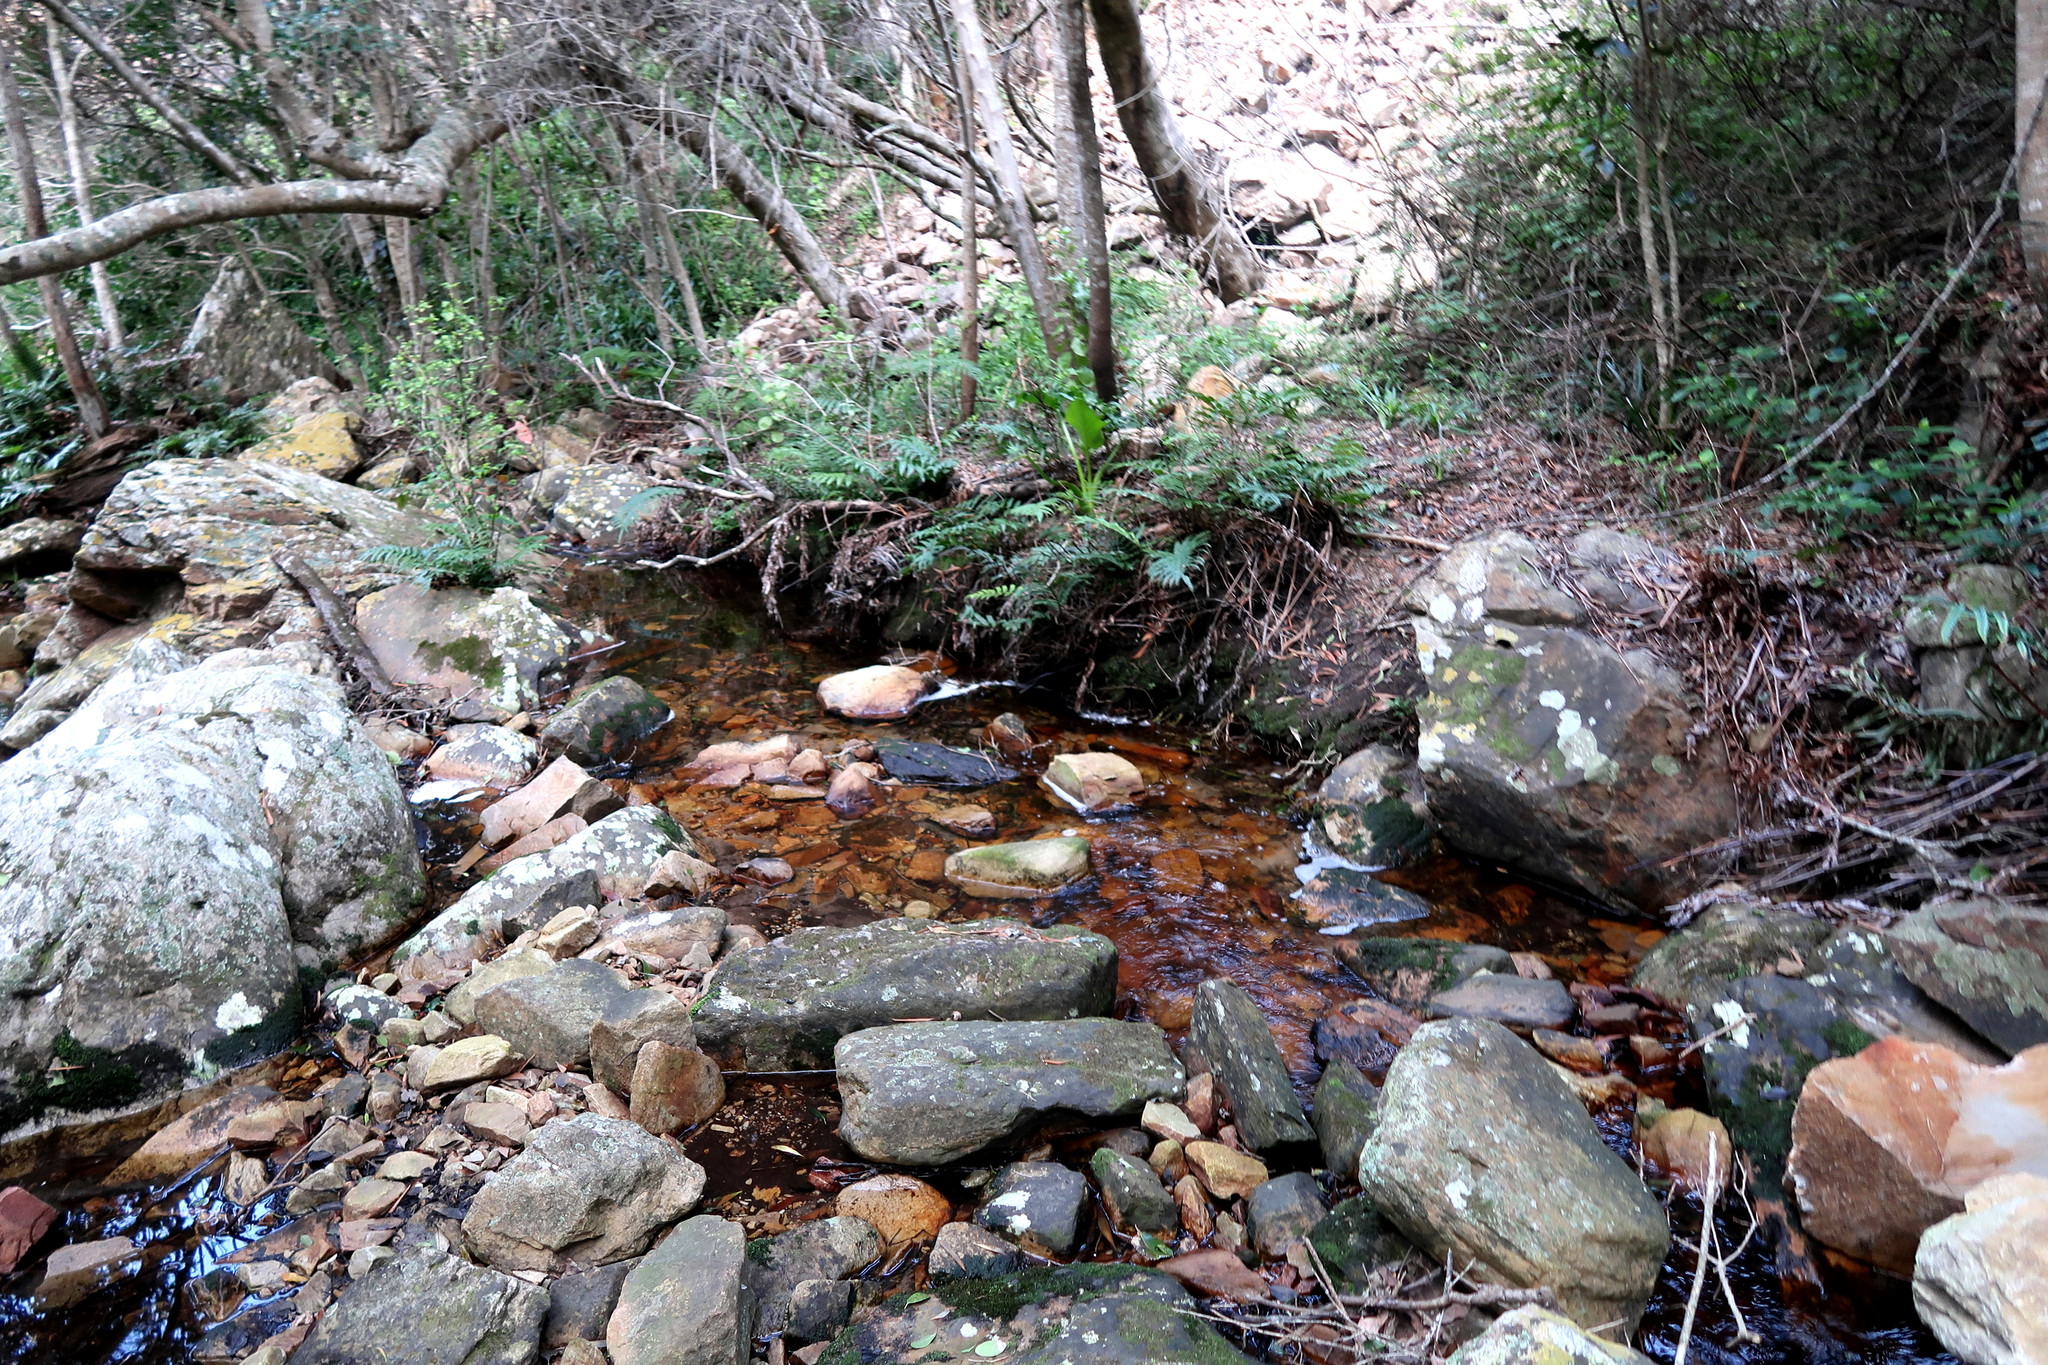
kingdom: Plantae
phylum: Tracheophyta
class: Polypodiopsida
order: Polypodiales
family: Blechnaceae
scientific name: Blechnaceae
